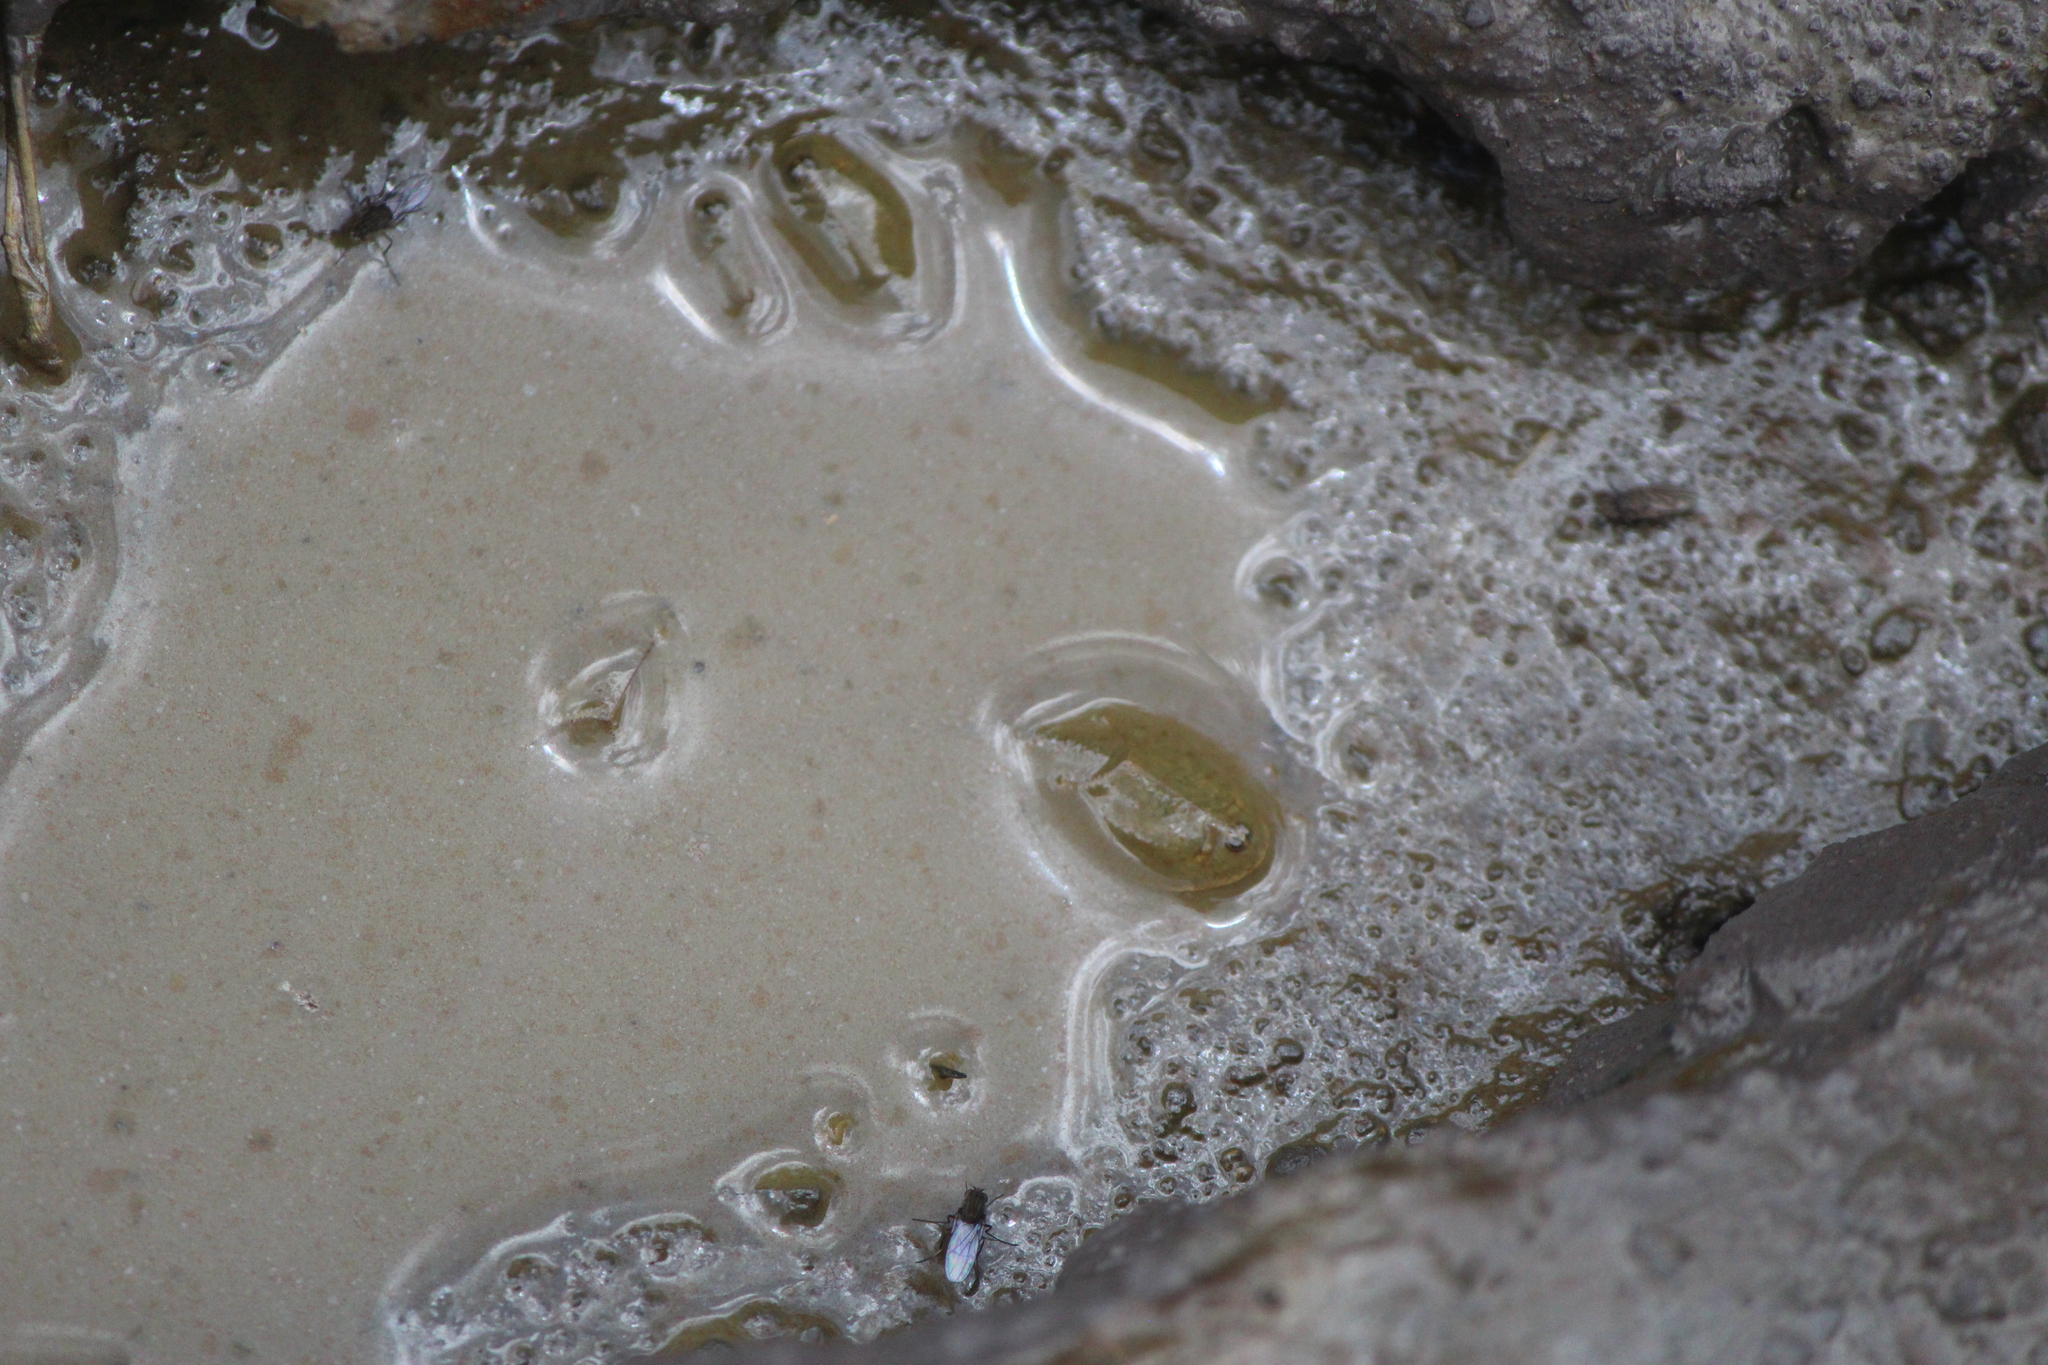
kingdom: Animalia
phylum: Arthropoda
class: Branchiopoda
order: Notostraca
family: Triopsidae
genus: Triops
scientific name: Triops longicaudatus
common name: Summer tadpole shrimp
